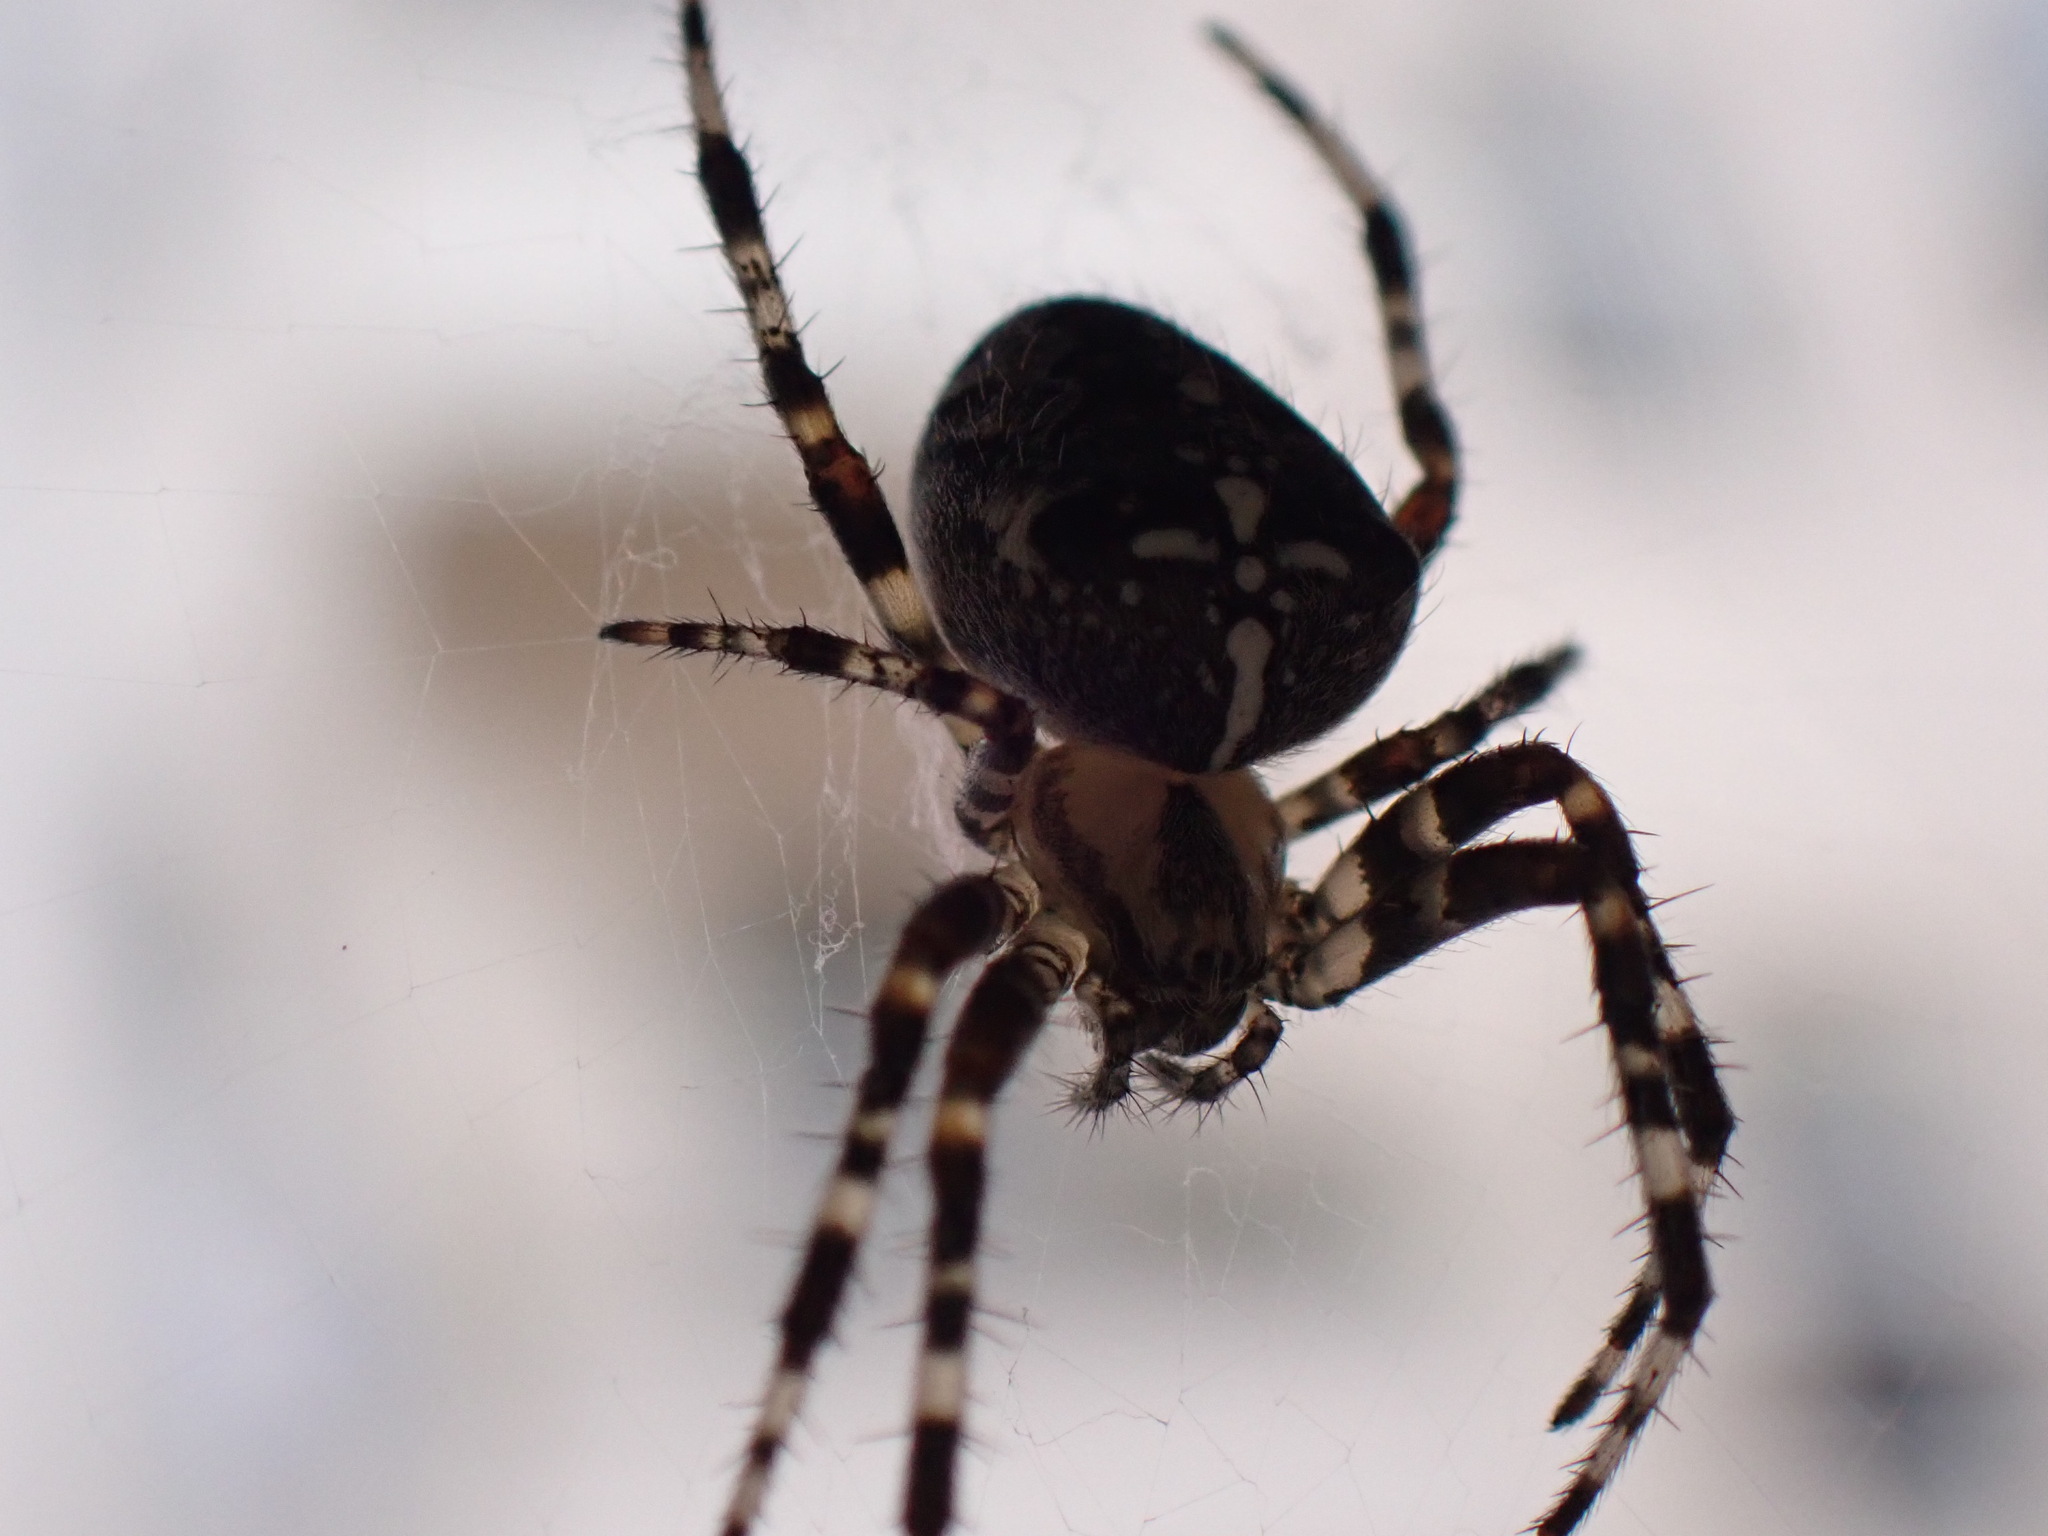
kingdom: Animalia
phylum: Arthropoda
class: Arachnida
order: Araneae
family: Araneidae
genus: Araneus
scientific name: Araneus diadematus
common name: Cross orbweaver
